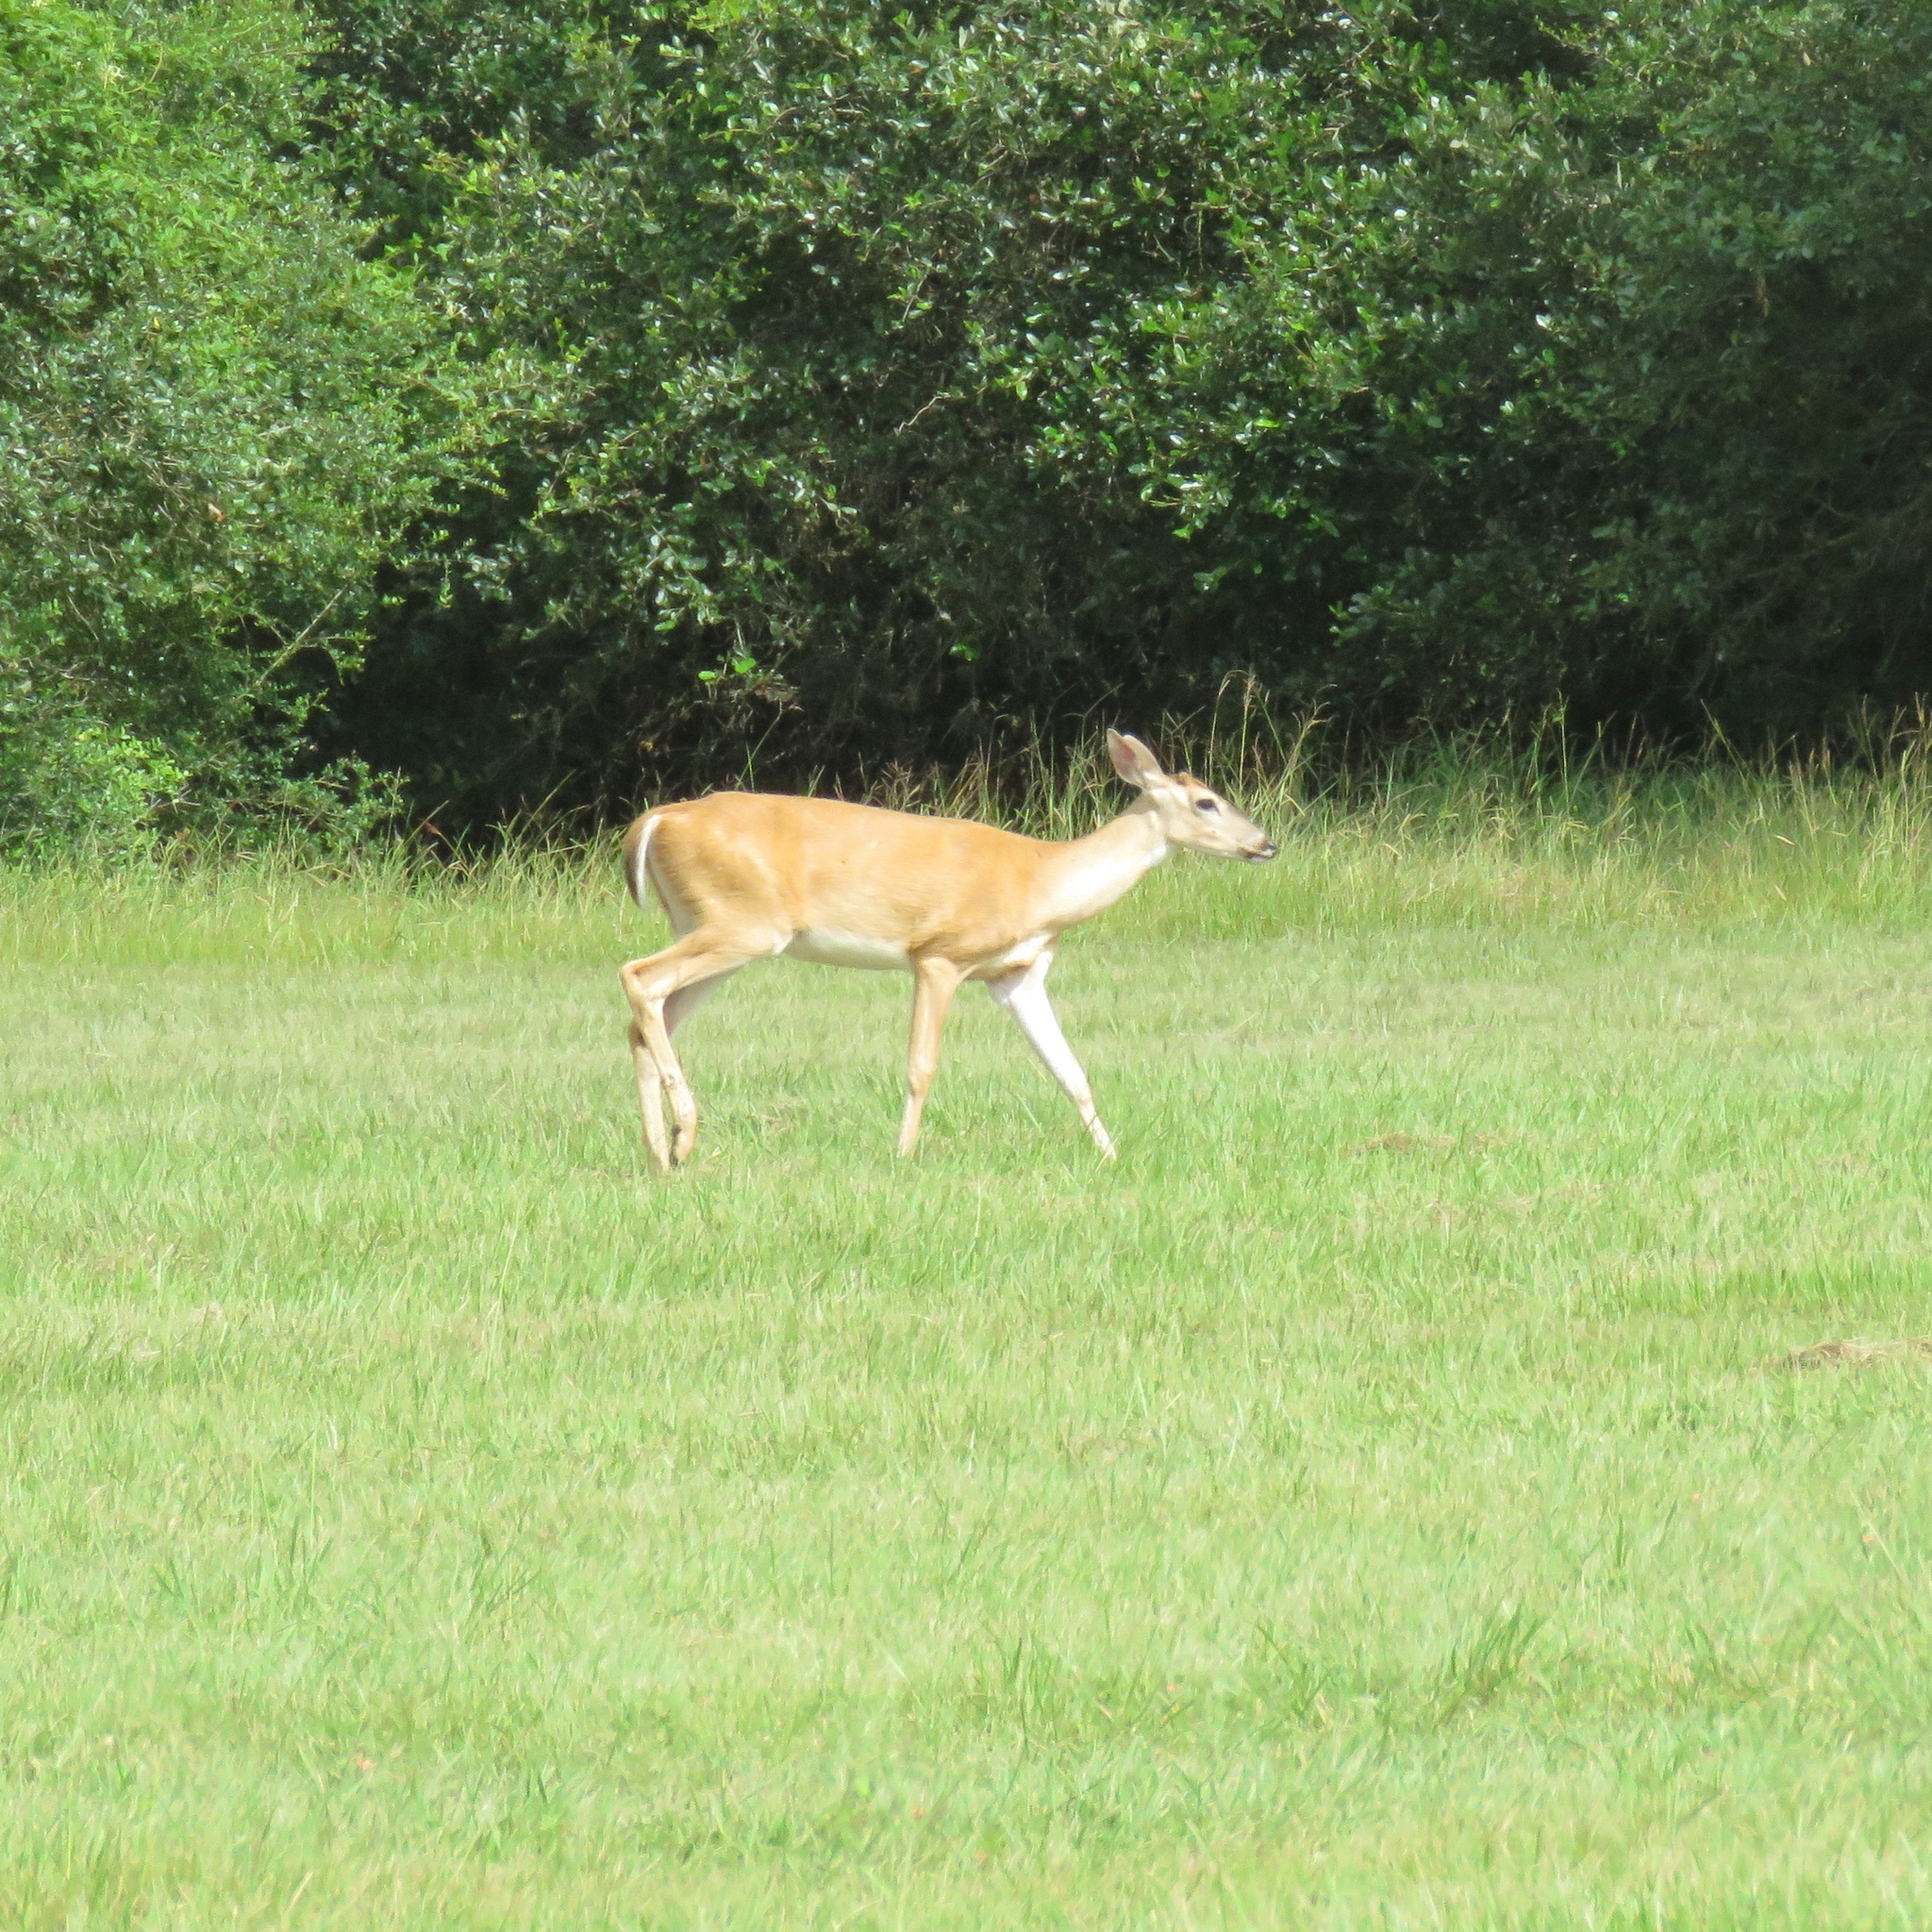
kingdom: Animalia
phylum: Chordata
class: Mammalia
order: Artiodactyla
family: Cervidae
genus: Odocoileus
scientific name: Odocoileus virginianus
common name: White-tailed deer
